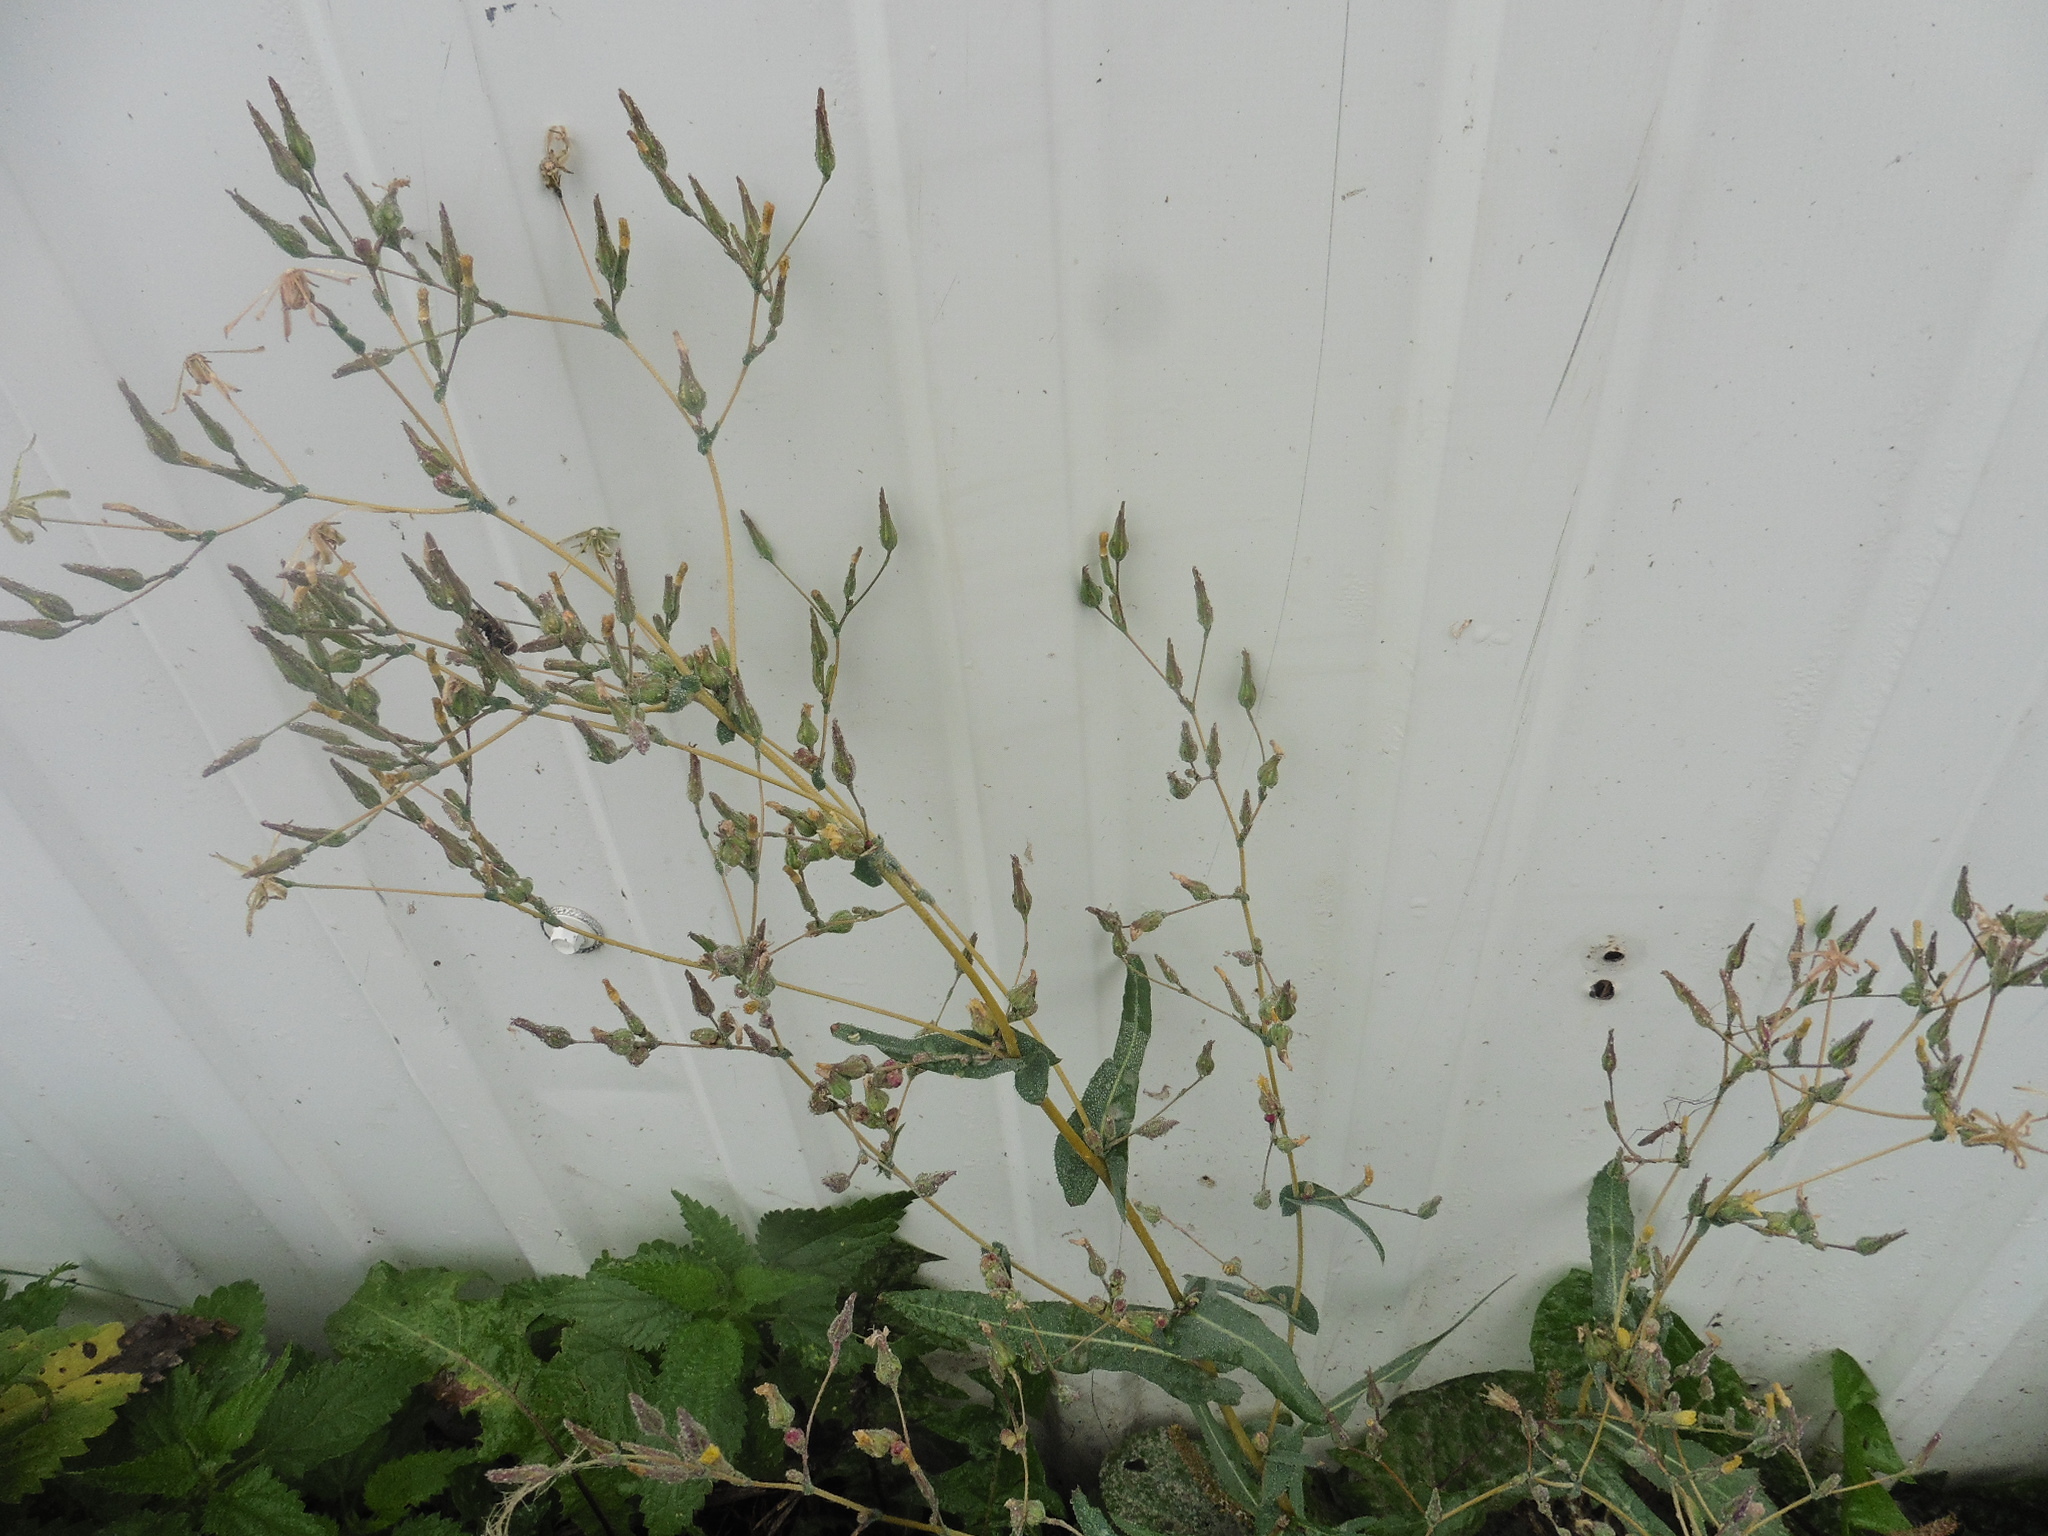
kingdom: Plantae
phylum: Tracheophyta
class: Magnoliopsida
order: Asterales
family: Asteraceae
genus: Lactuca
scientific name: Lactuca serriola
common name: Prickly lettuce
